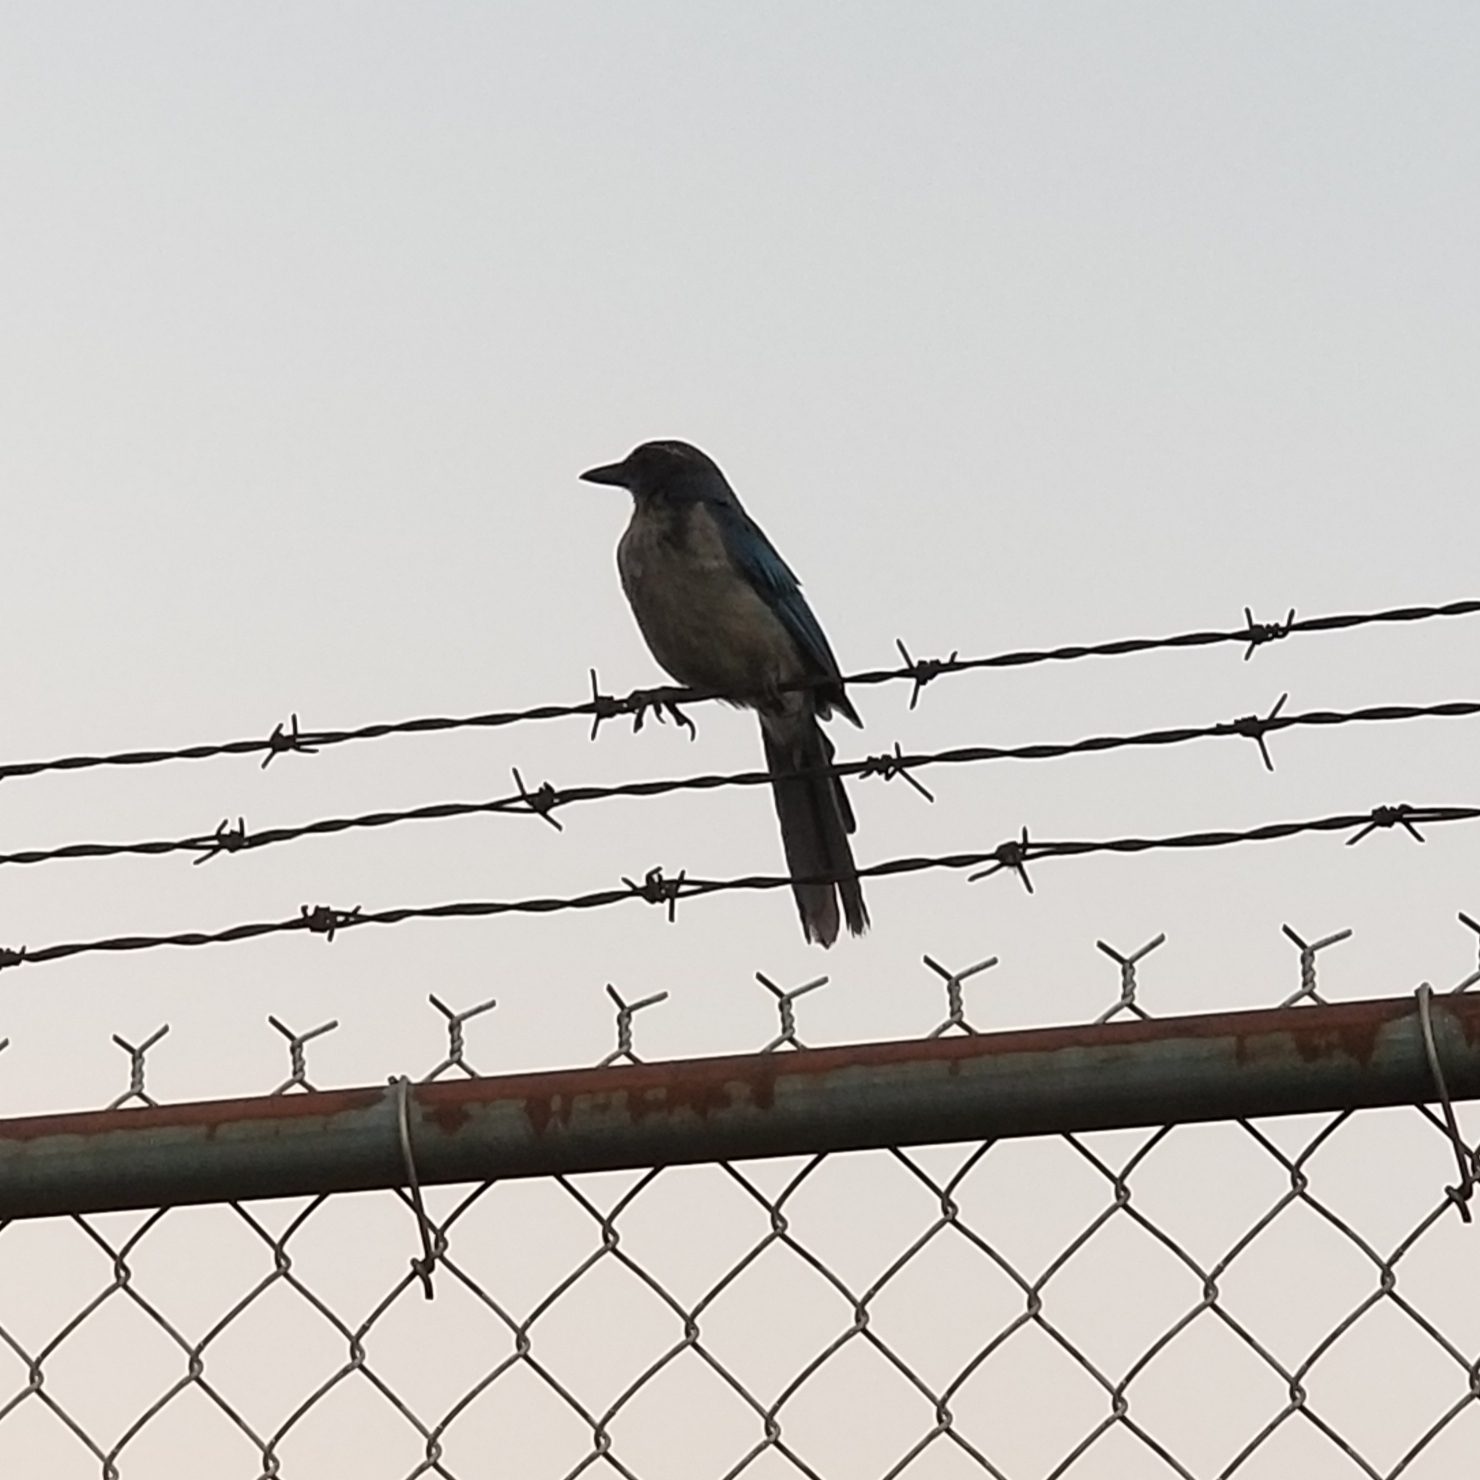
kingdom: Animalia
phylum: Chordata
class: Aves
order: Passeriformes
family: Corvidae
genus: Aphelocoma
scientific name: Aphelocoma californica
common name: California scrub-jay
